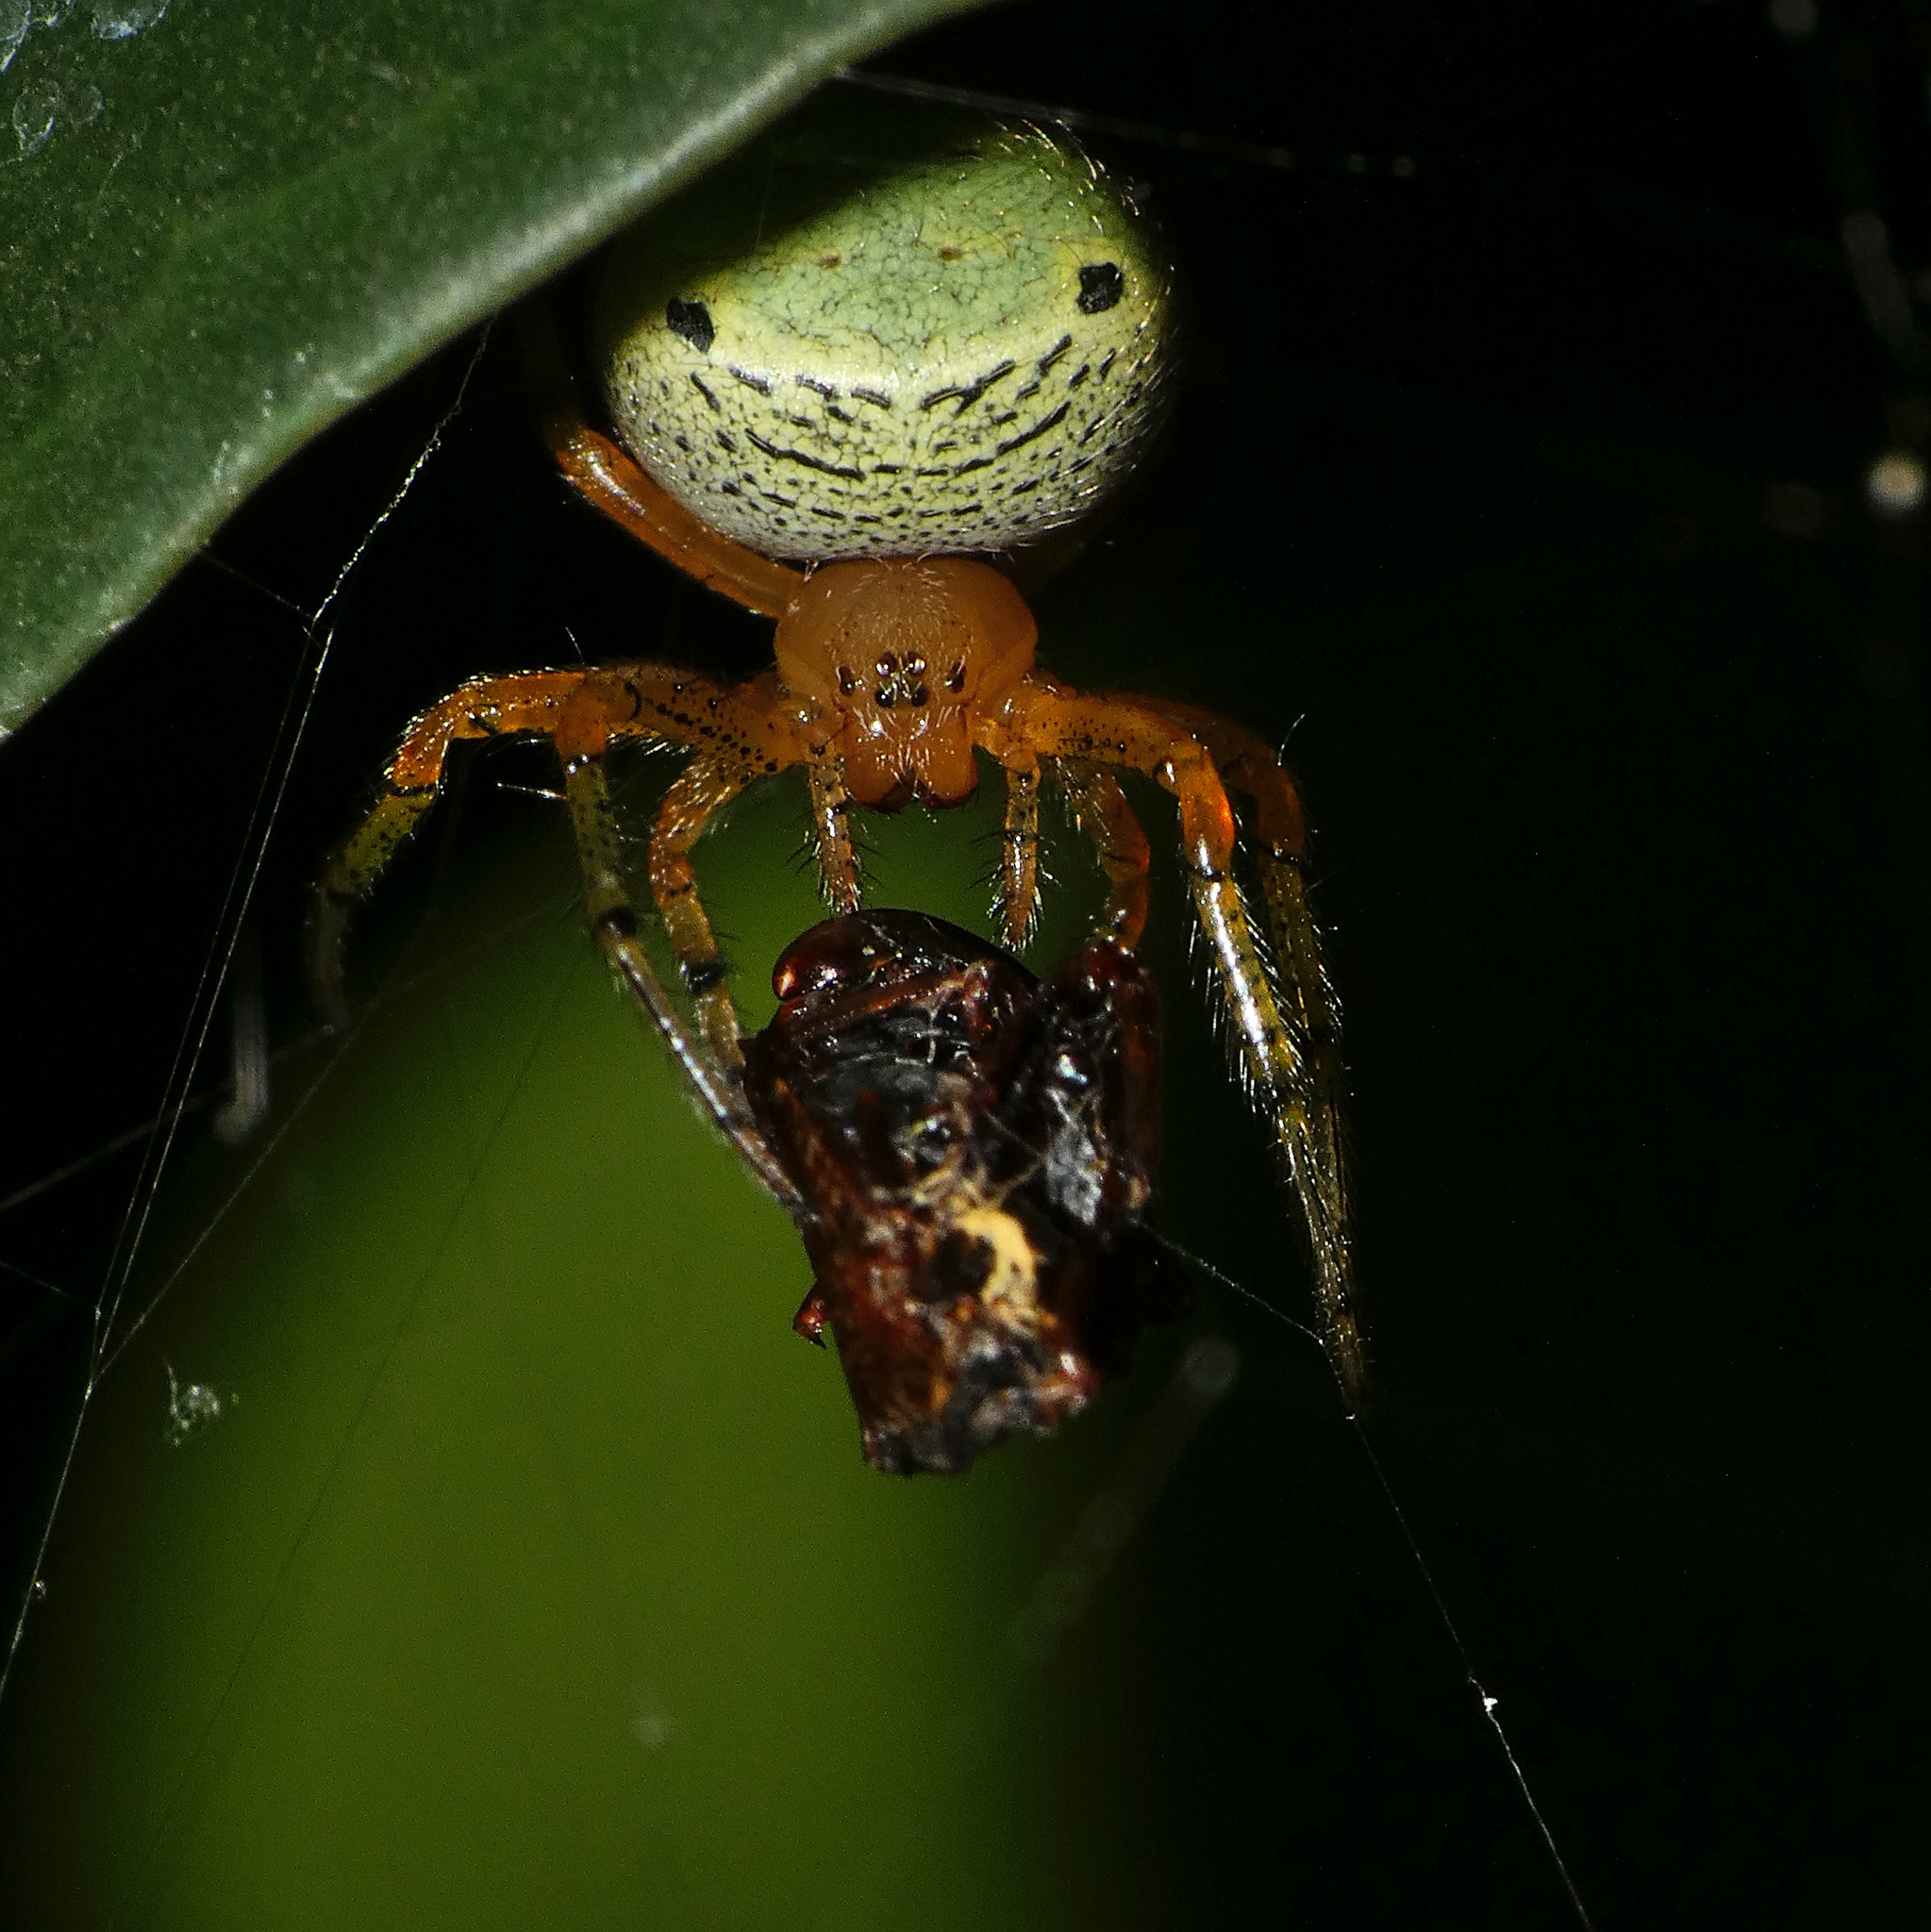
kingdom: Animalia
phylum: Arthropoda
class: Arachnida
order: Araneae
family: Araneidae
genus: Neoscona
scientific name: Neoscona rufipalpis
